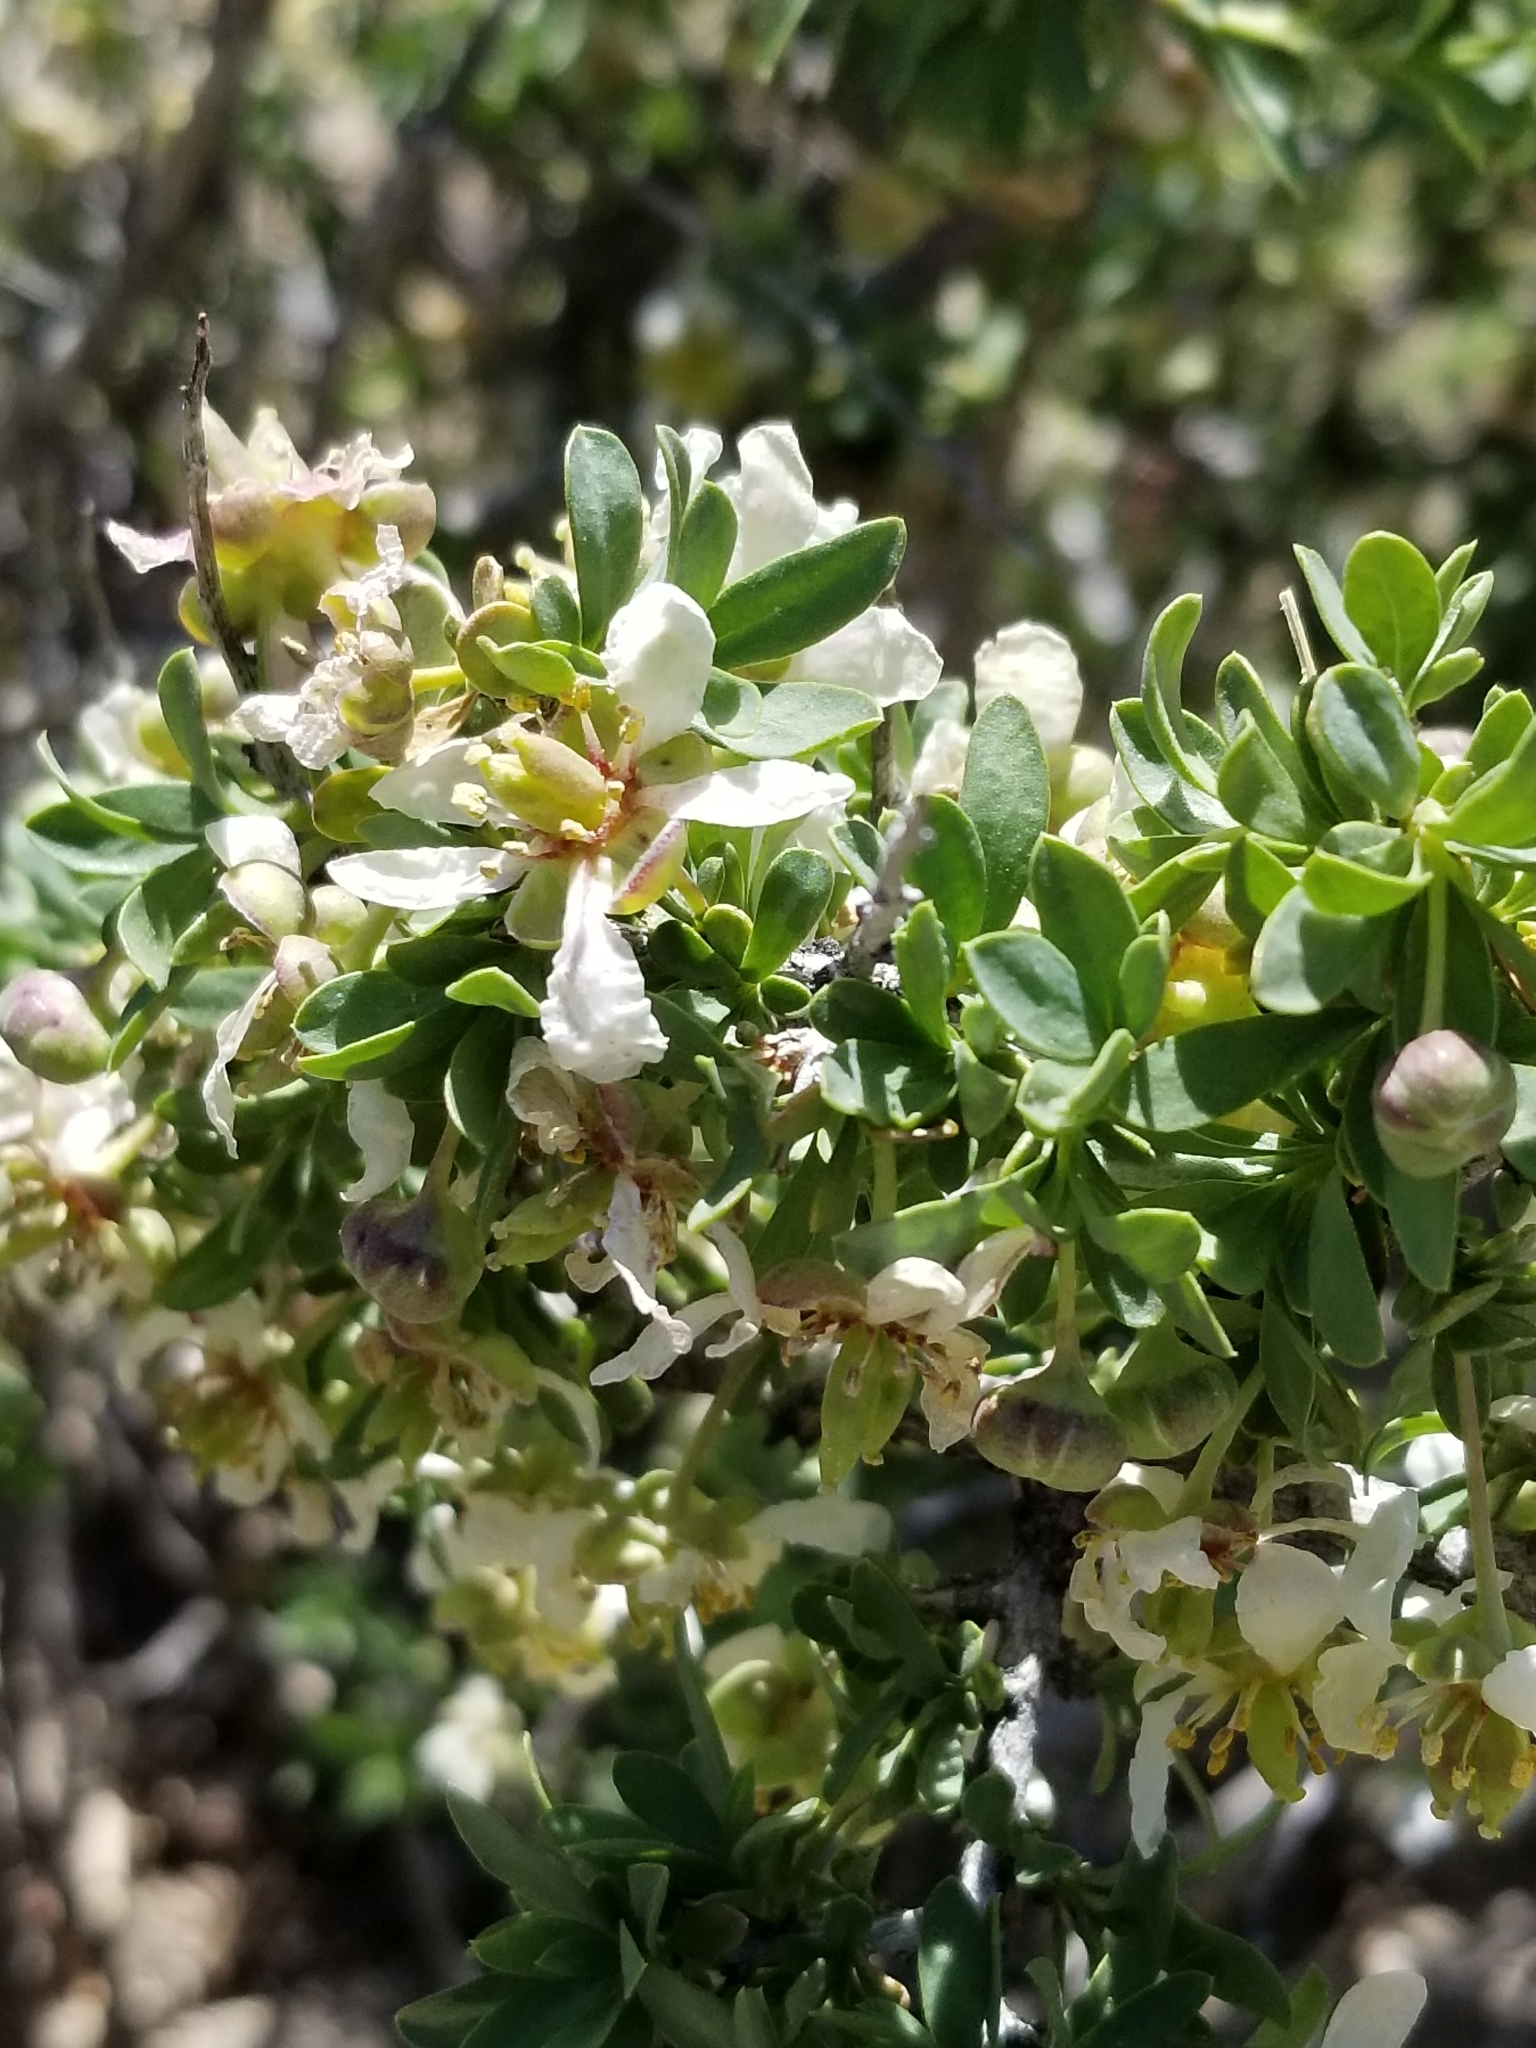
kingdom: Plantae
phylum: Tracheophyta
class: Magnoliopsida
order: Crossosomatales
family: Crossosomataceae
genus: Crossosoma
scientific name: Crossosoma bigelovii
